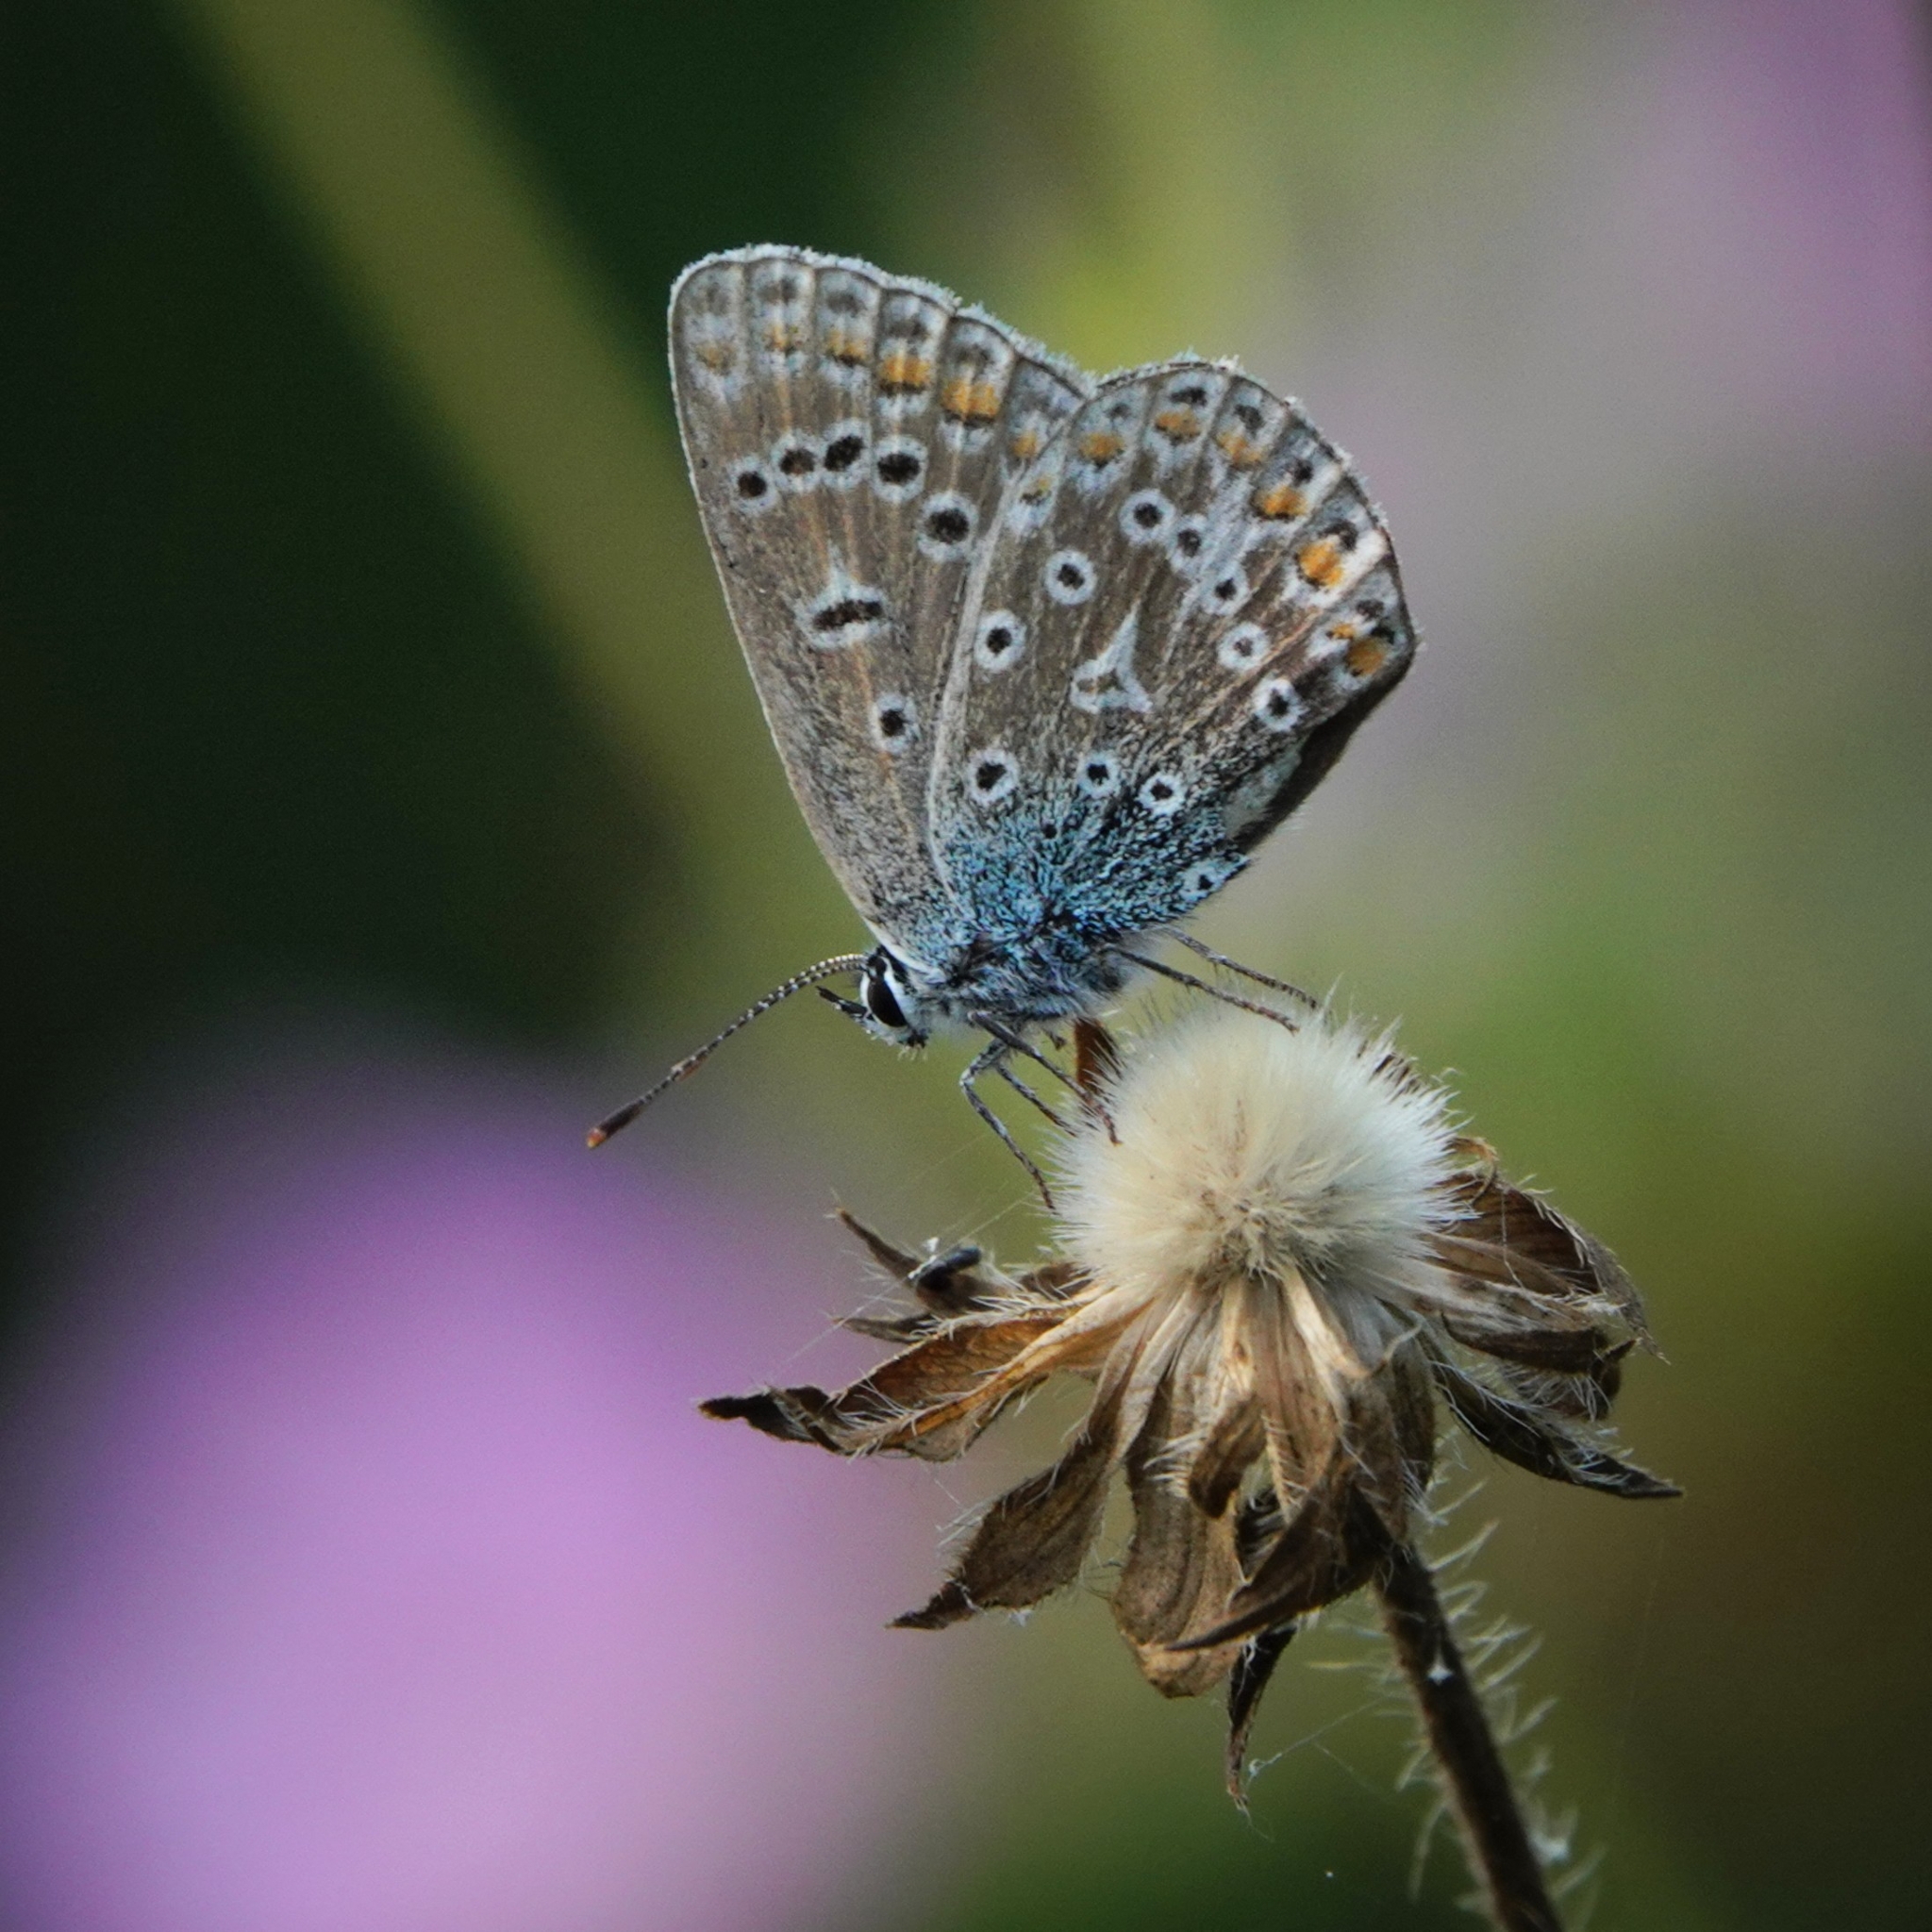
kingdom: Animalia
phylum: Arthropoda
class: Insecta
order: Lepidoptera
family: Lycaenidae
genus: Polyommatus
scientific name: Polyommatus icarus
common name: Common blue
